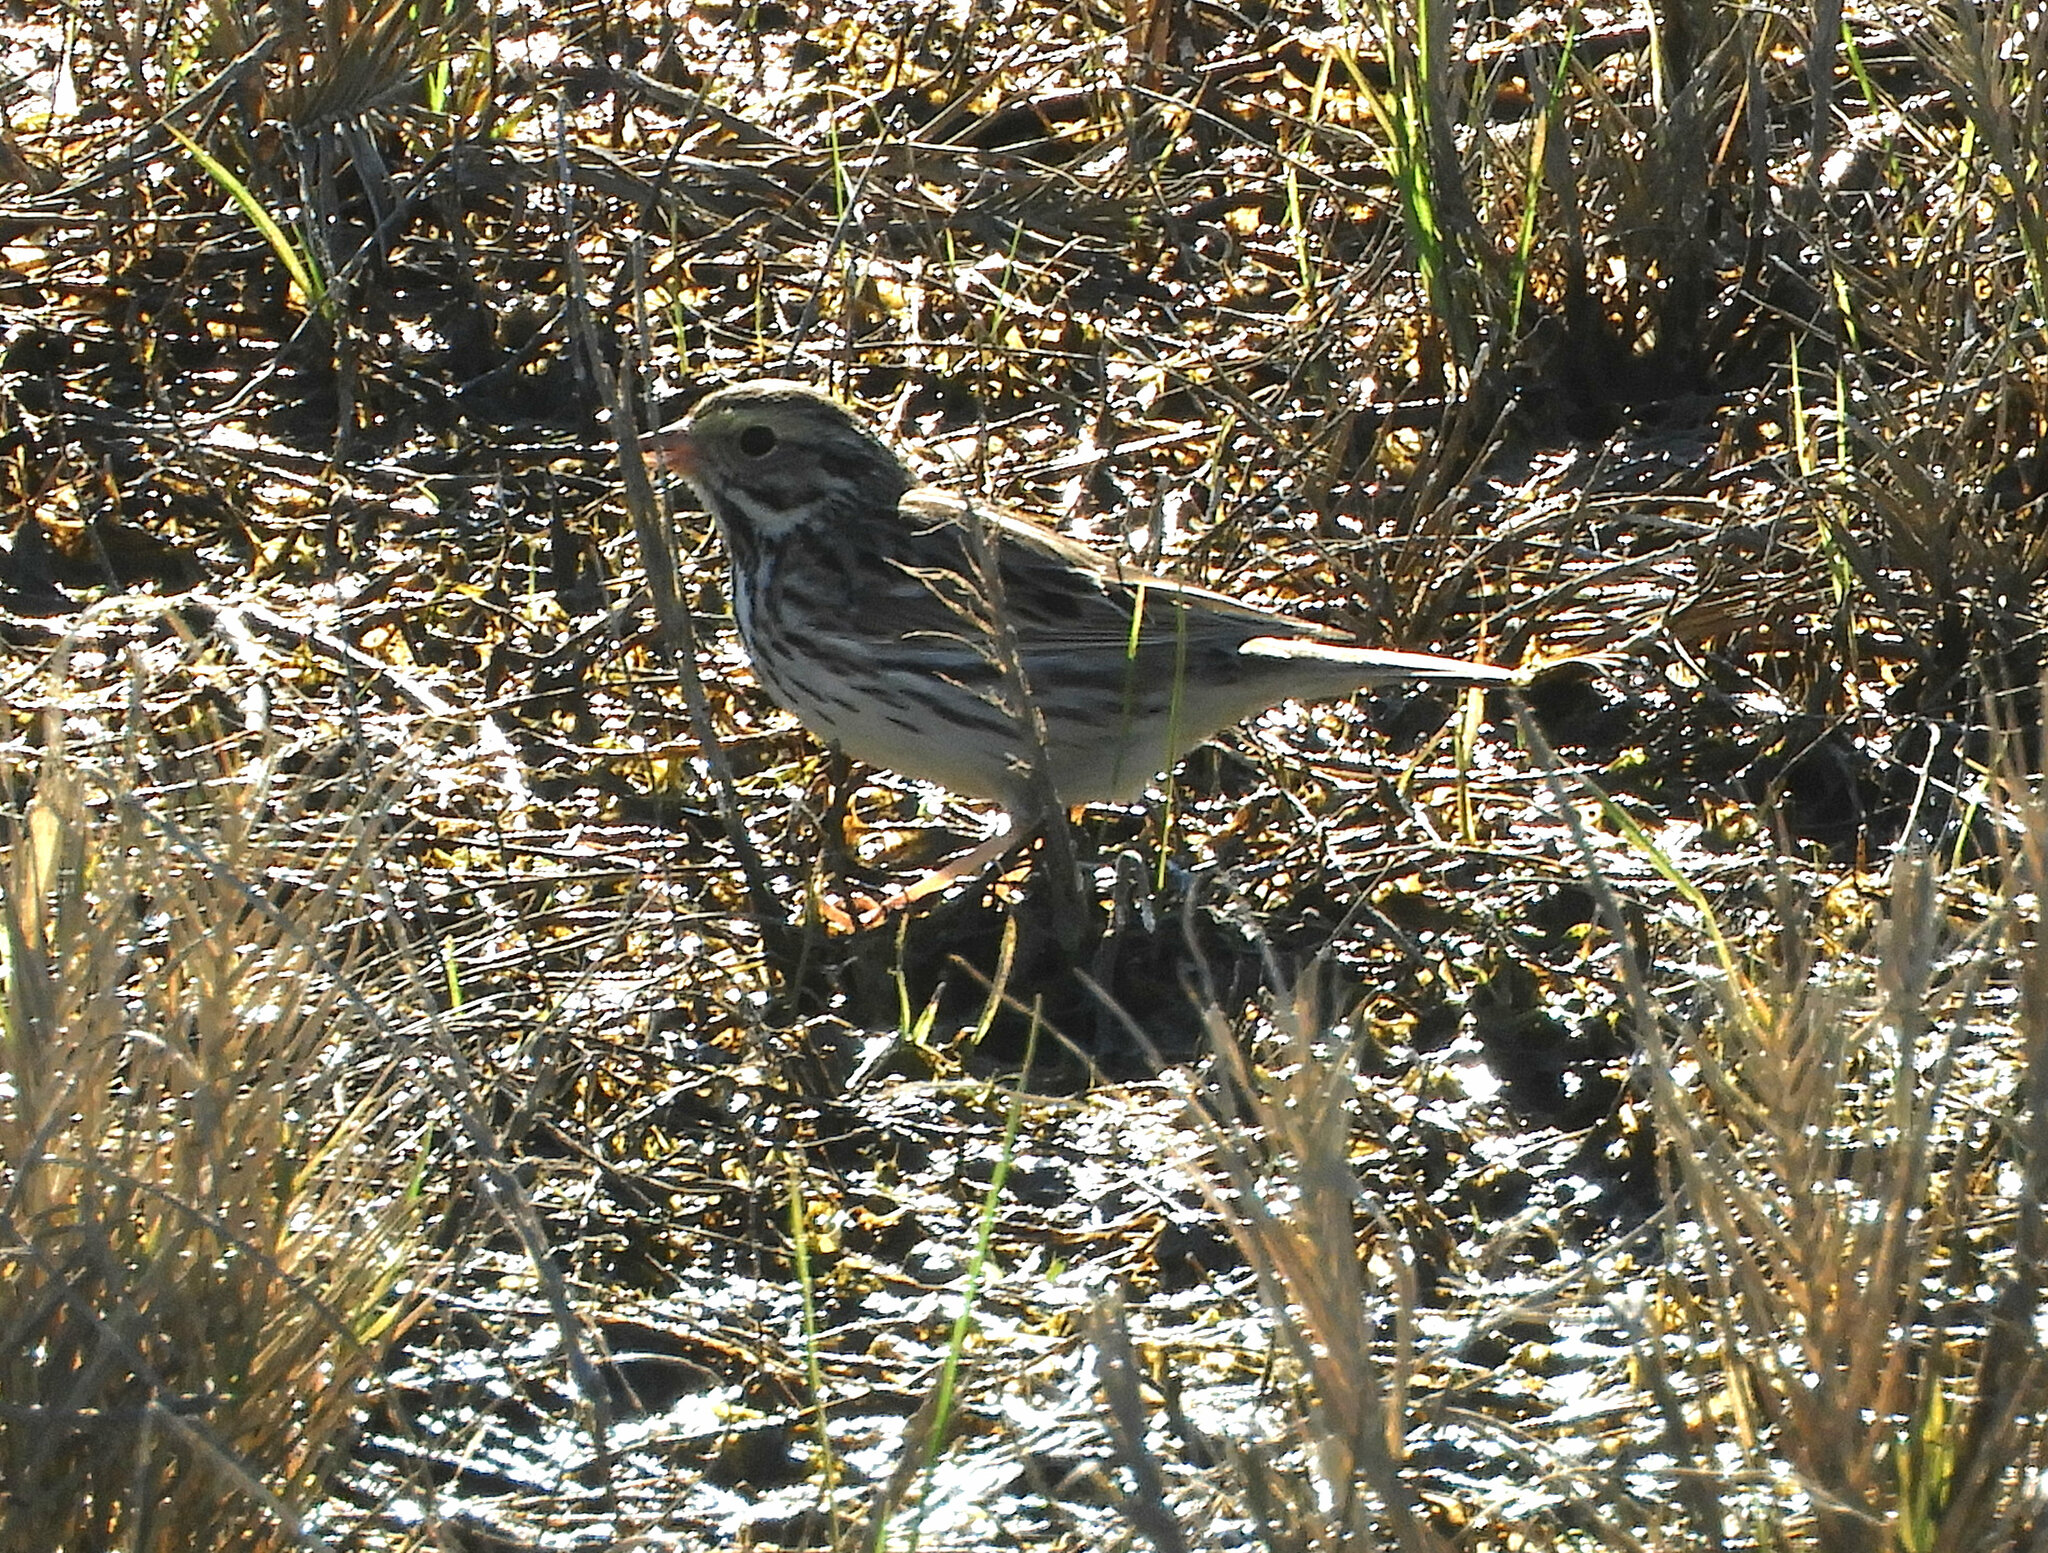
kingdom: Animalia
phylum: Chordata
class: Aves
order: Passeriformes
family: Passerellidae
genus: Passerculus
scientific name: Passerculus sandwichensis
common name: Savannah sparrow
